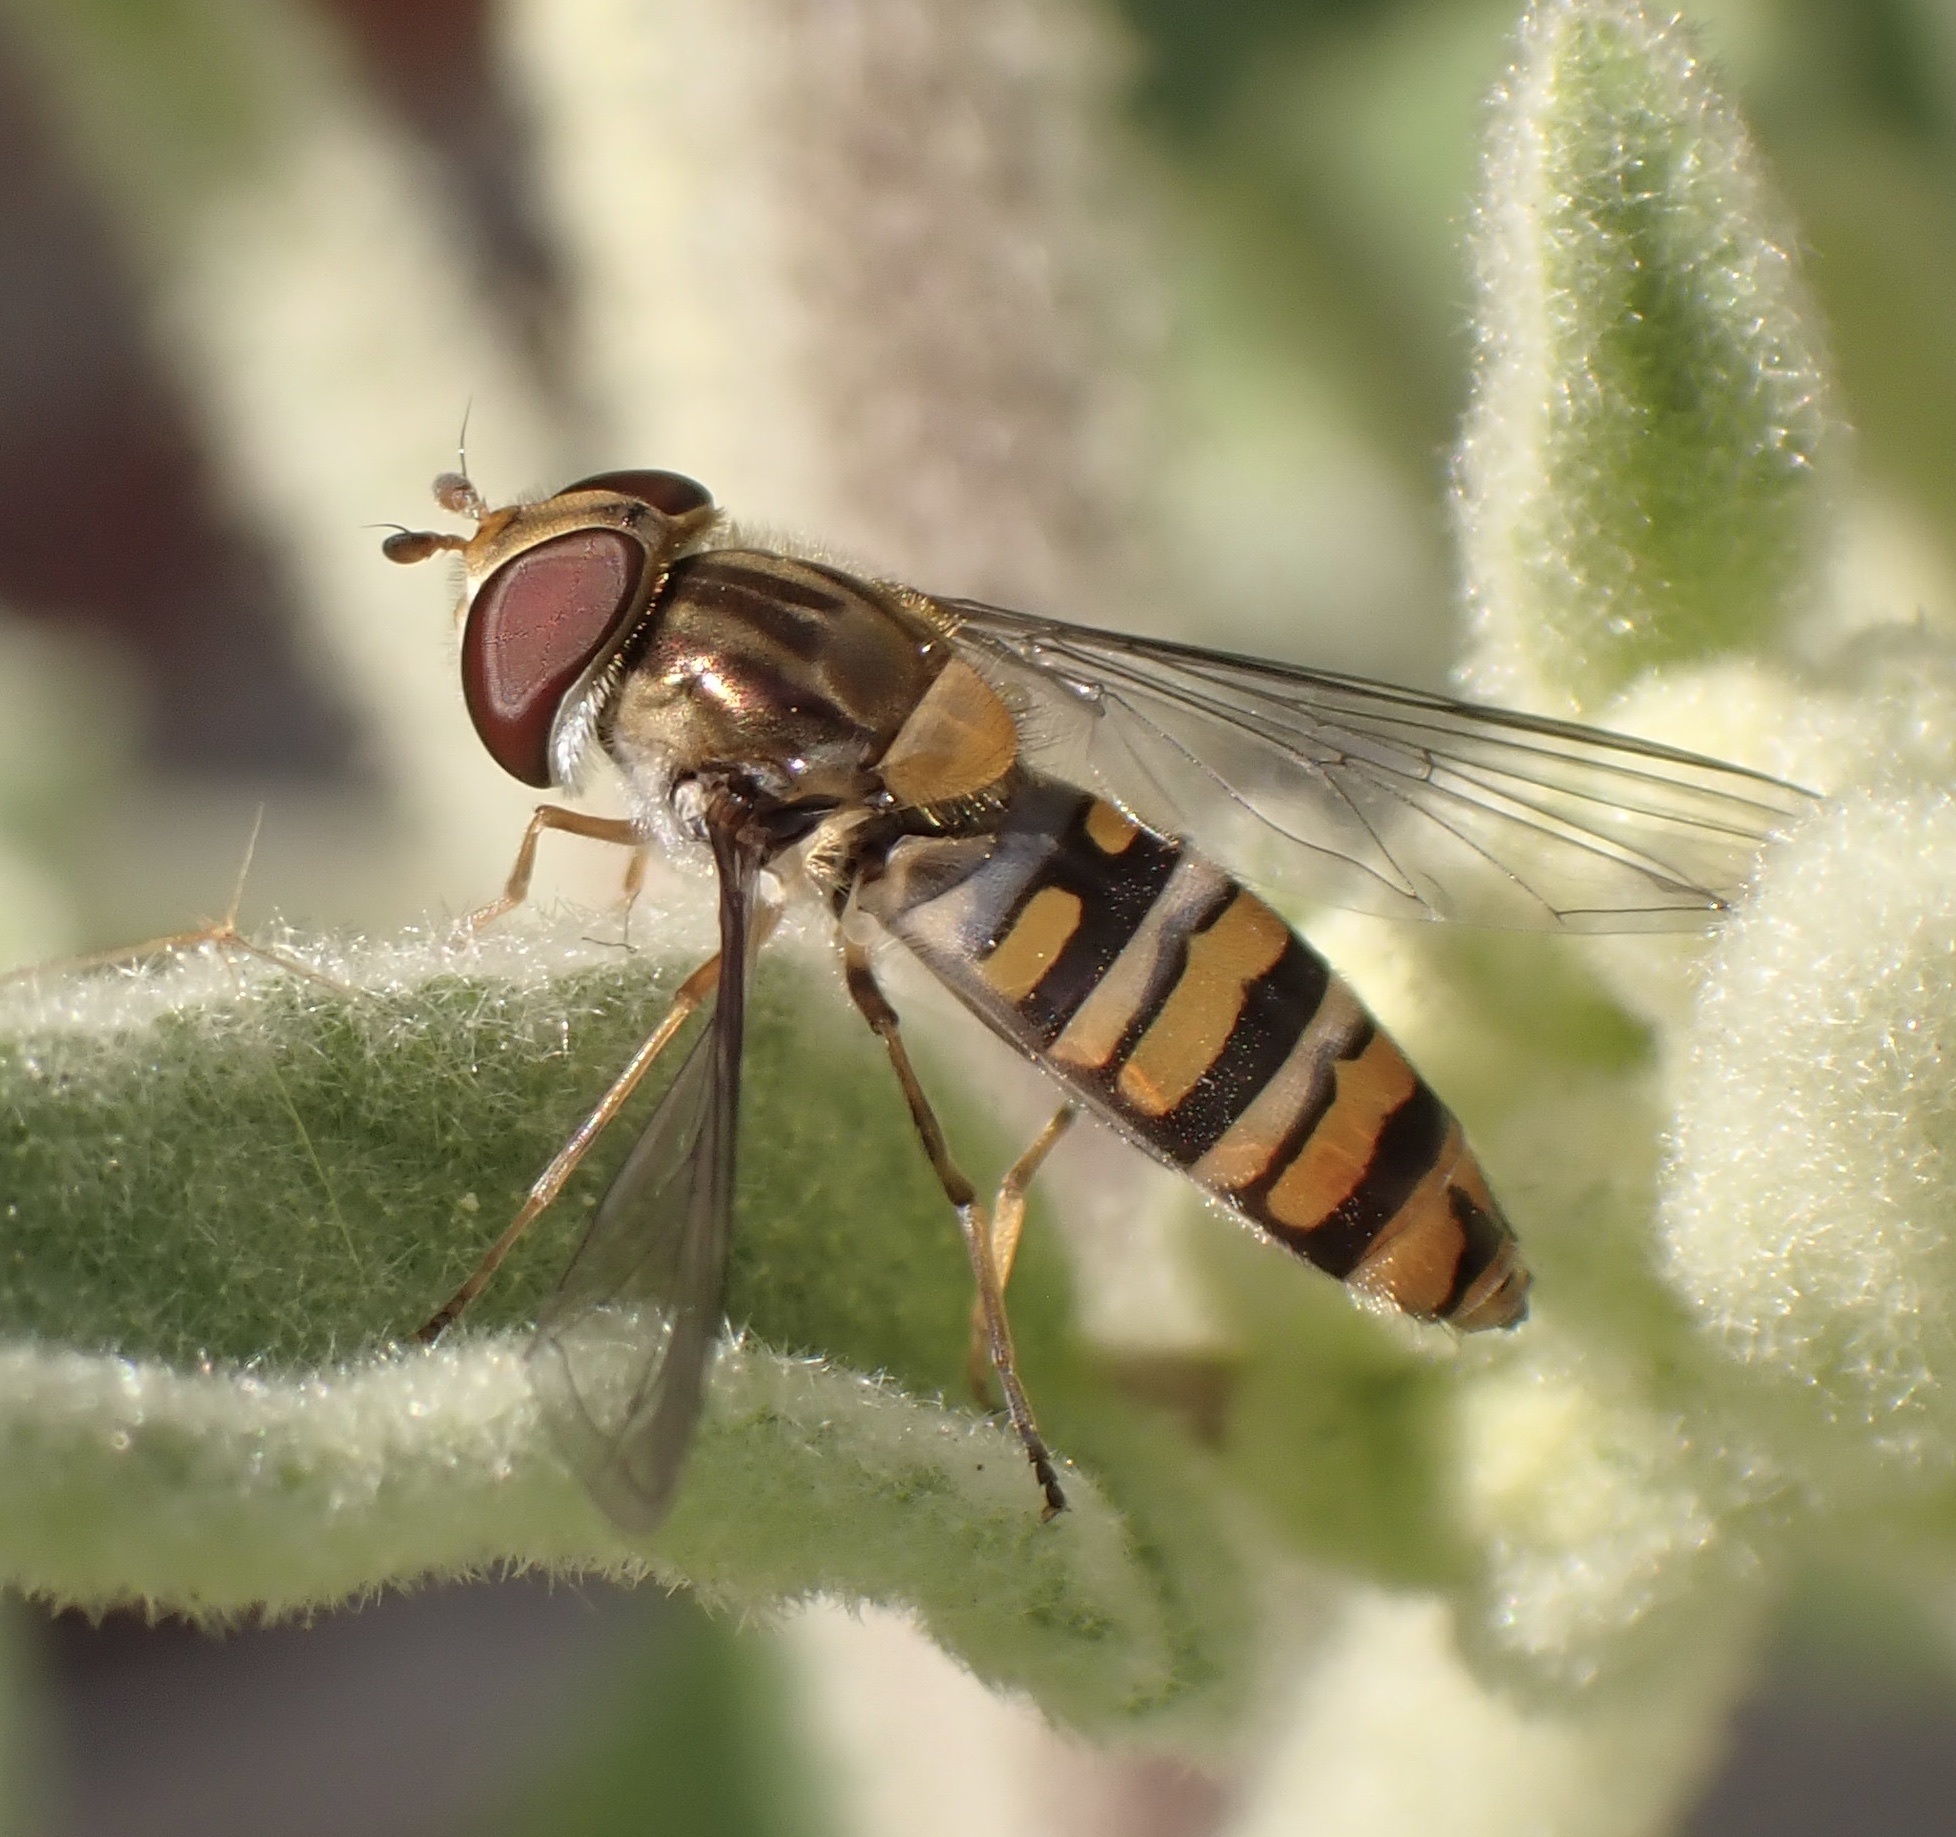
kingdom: Animalia
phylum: Arthropoda
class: Insecta
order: Diptera
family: Syrphidae
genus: Episyrphus
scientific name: Episyrphus balteatus
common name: Marmalade hoverfly
